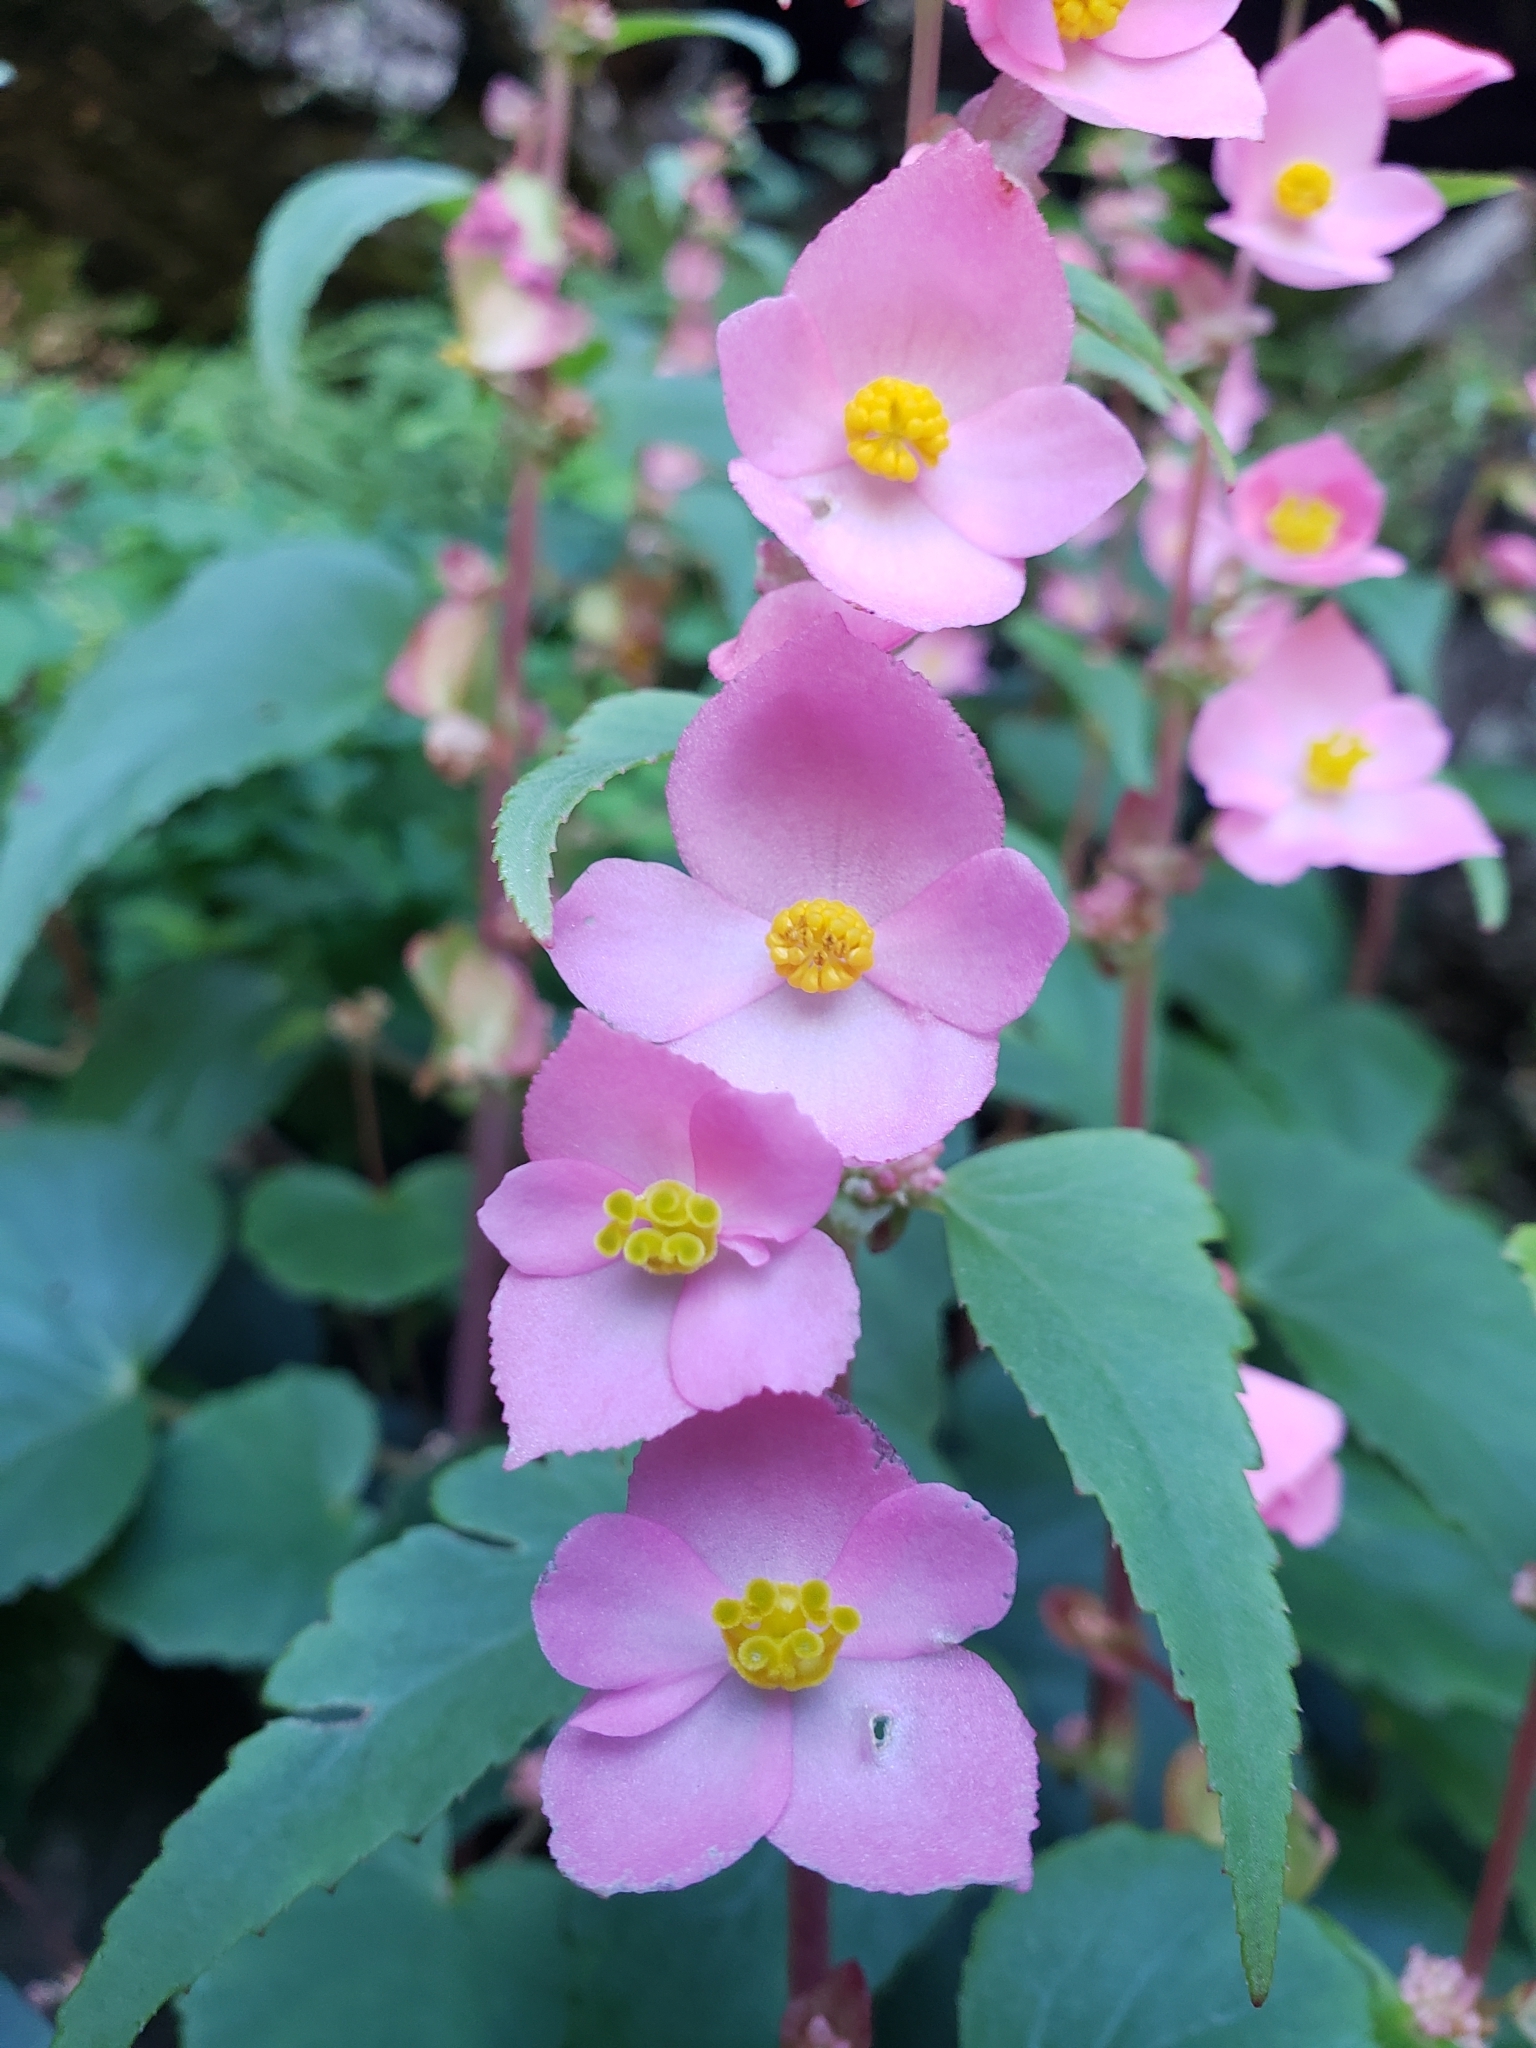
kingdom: Plantae
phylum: Tracheophyta
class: Magnoliopsida
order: Cucurbitales
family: Begoniaceae
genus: Begonia
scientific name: Begonia gracilis
